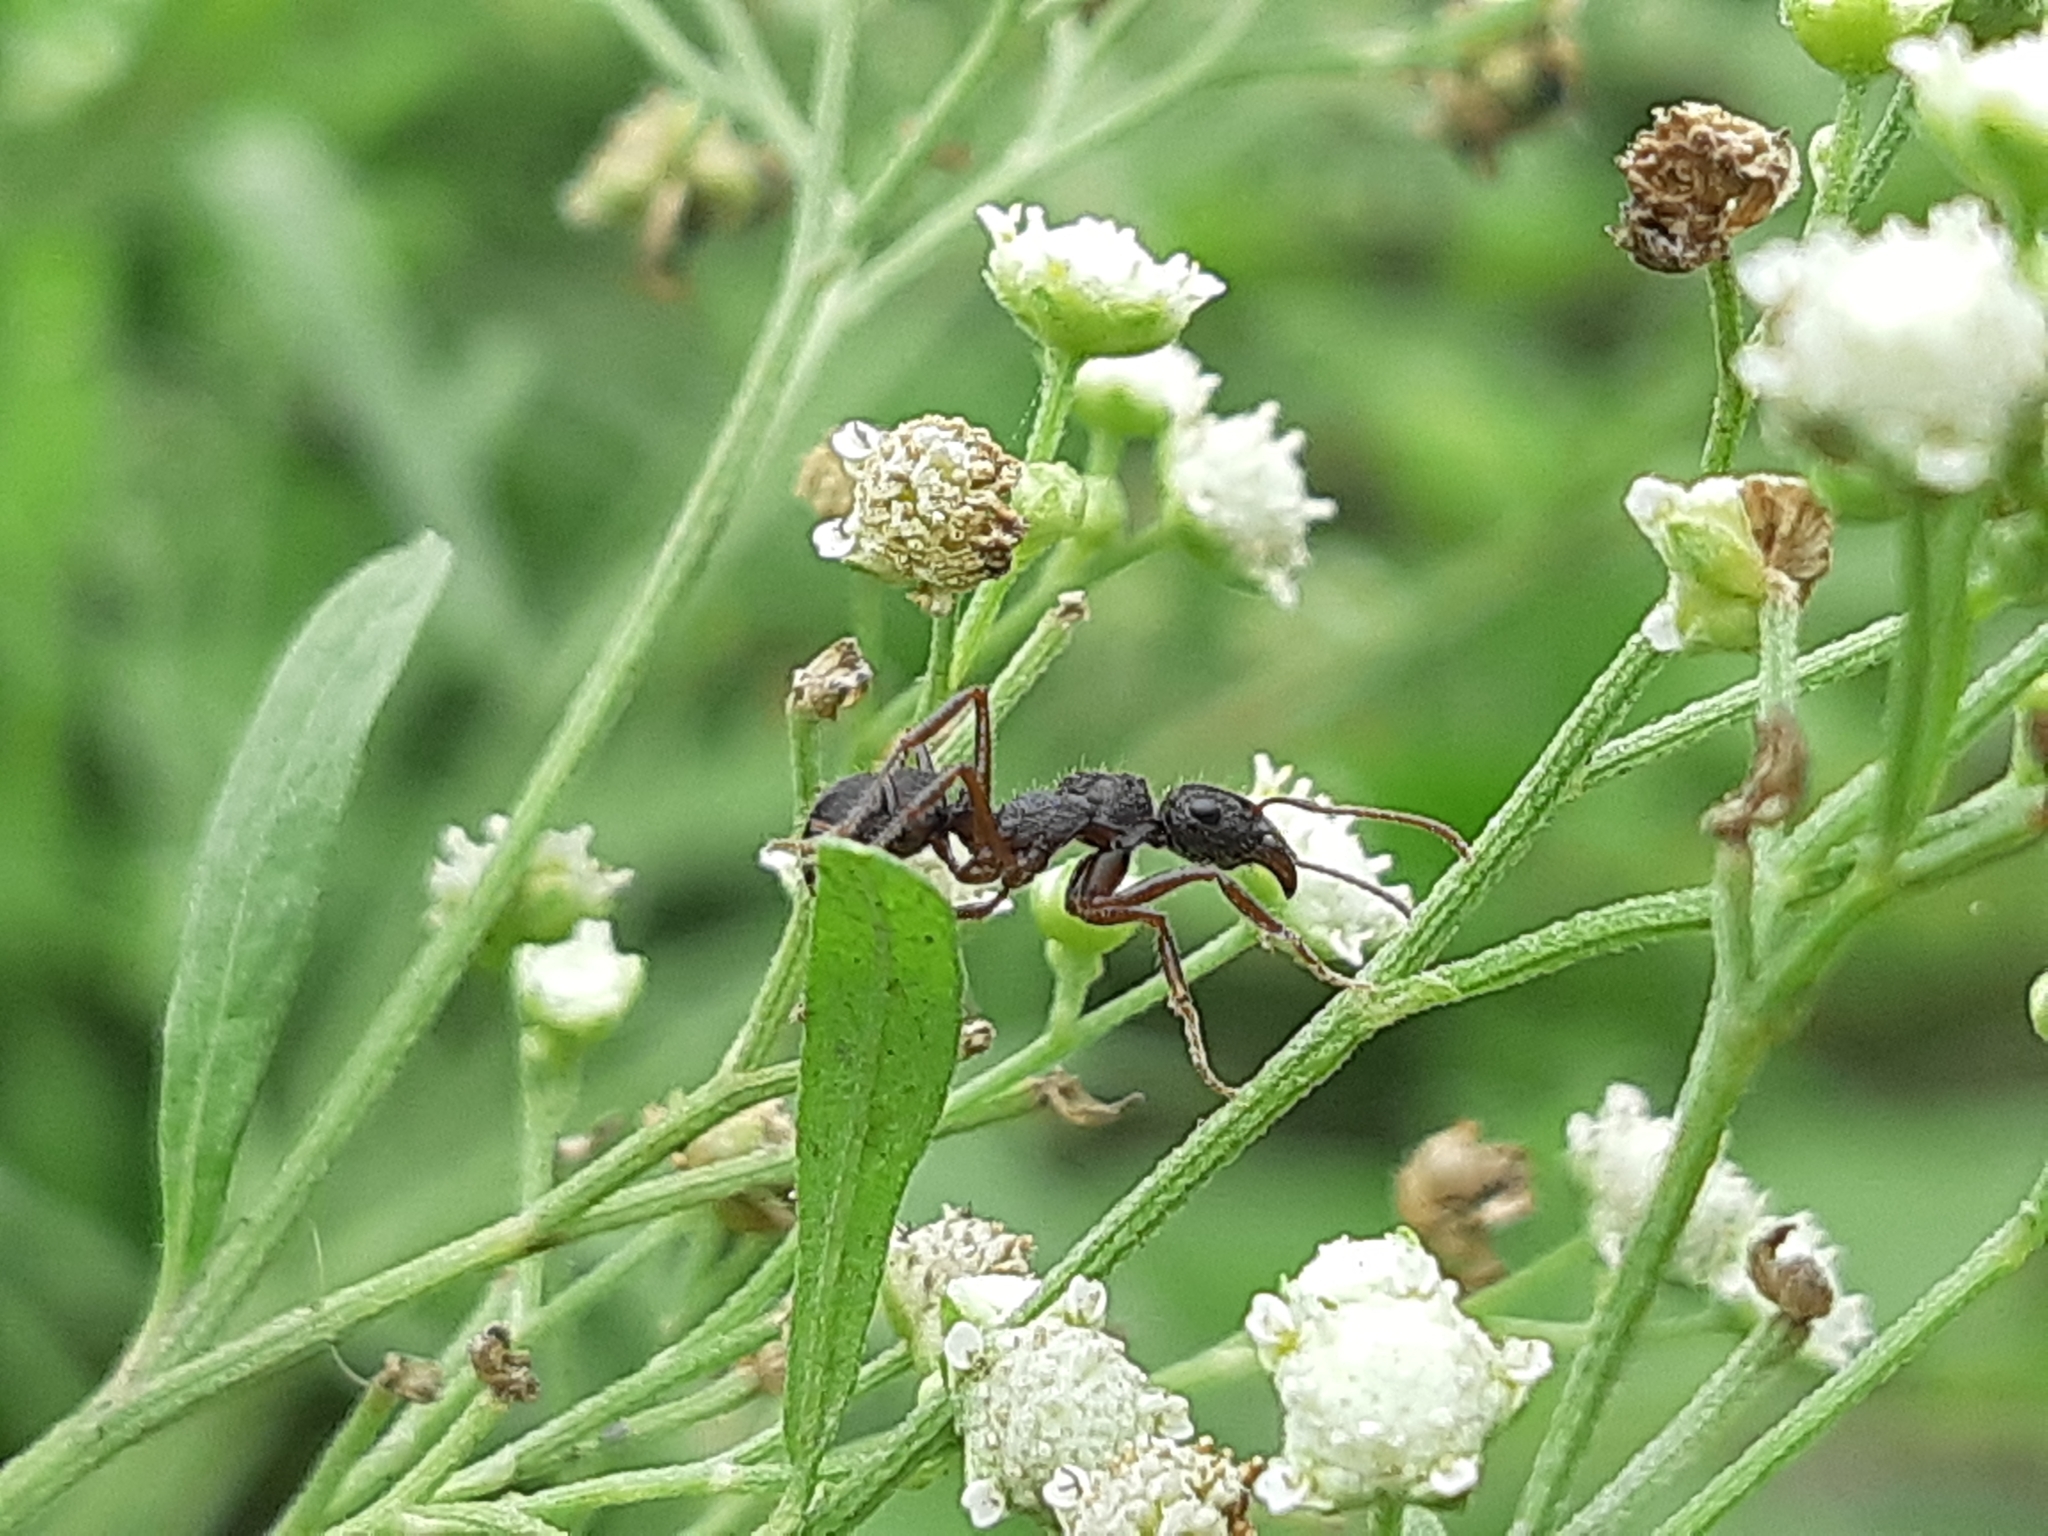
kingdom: Animalia
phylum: Arthropoda
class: Insecta
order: Hymenoptera
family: Formicidae
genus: Ectatomma
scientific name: Ectatomma ruidum
